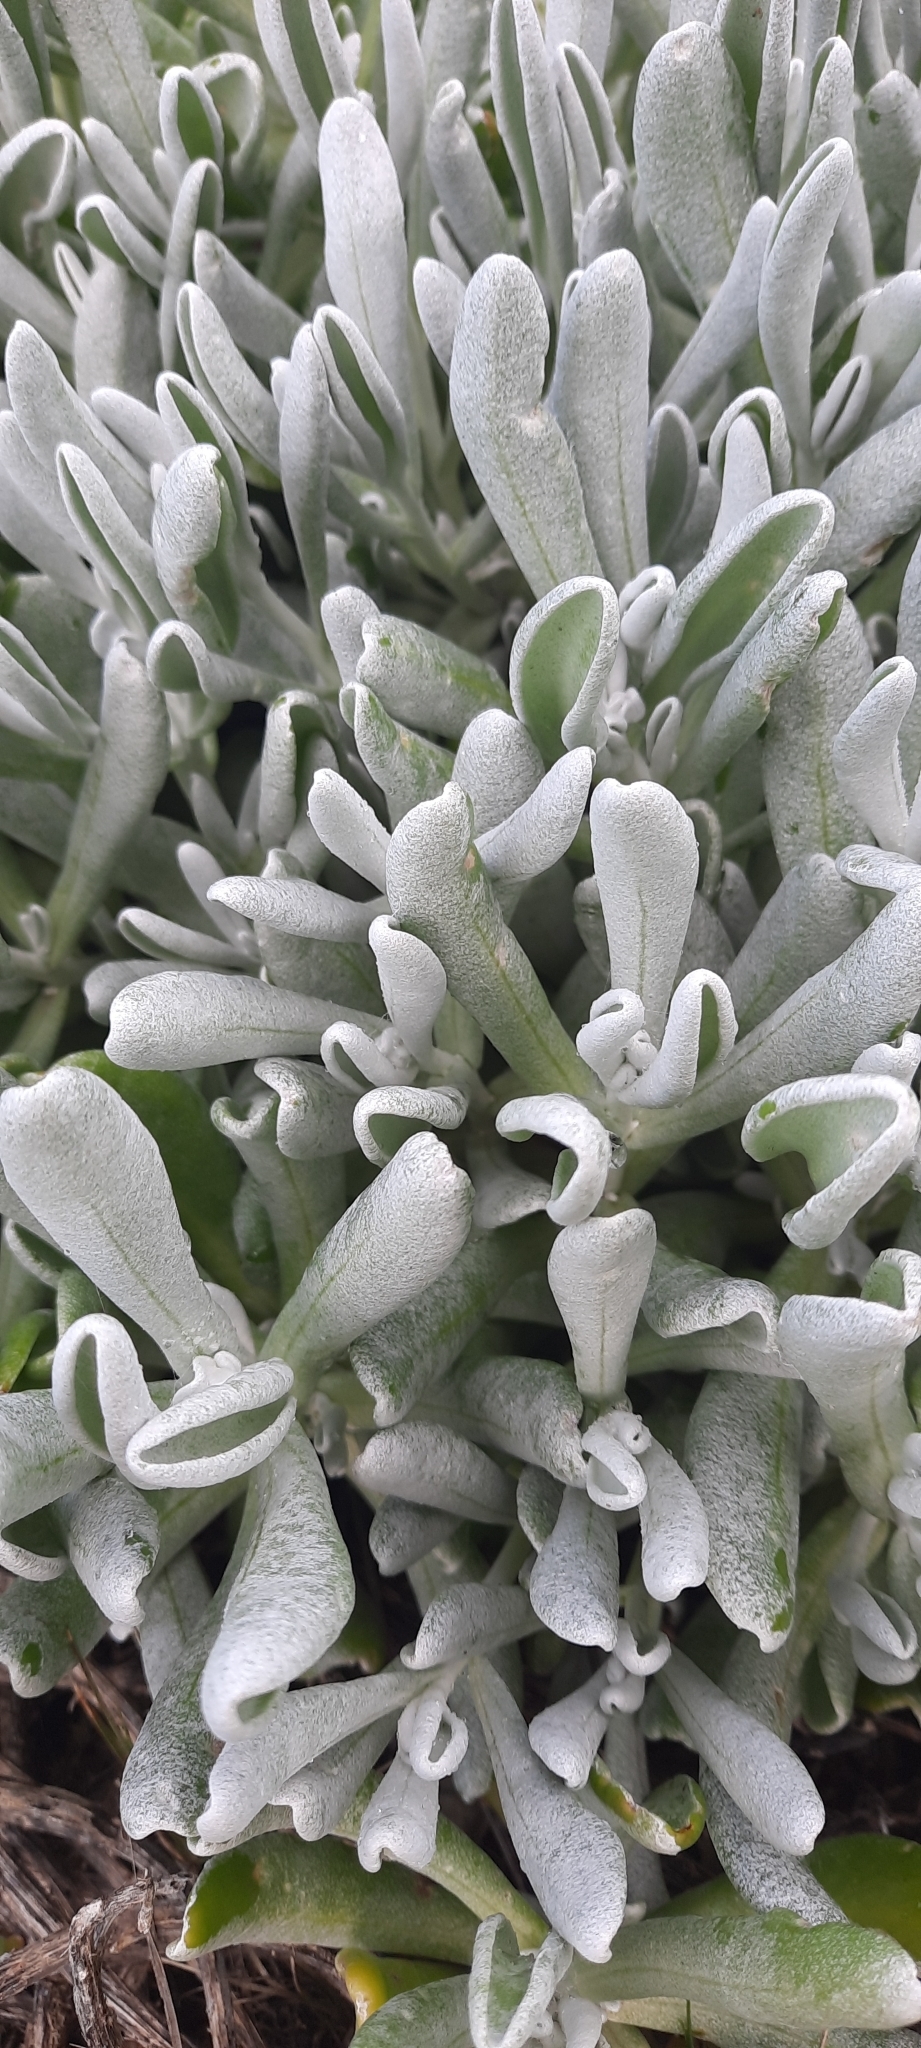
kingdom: Plantae
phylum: Tracheophyta
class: Magnoliopsida
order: Asterales
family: Asteraceae
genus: Didelta
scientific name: Didelta carnosa
